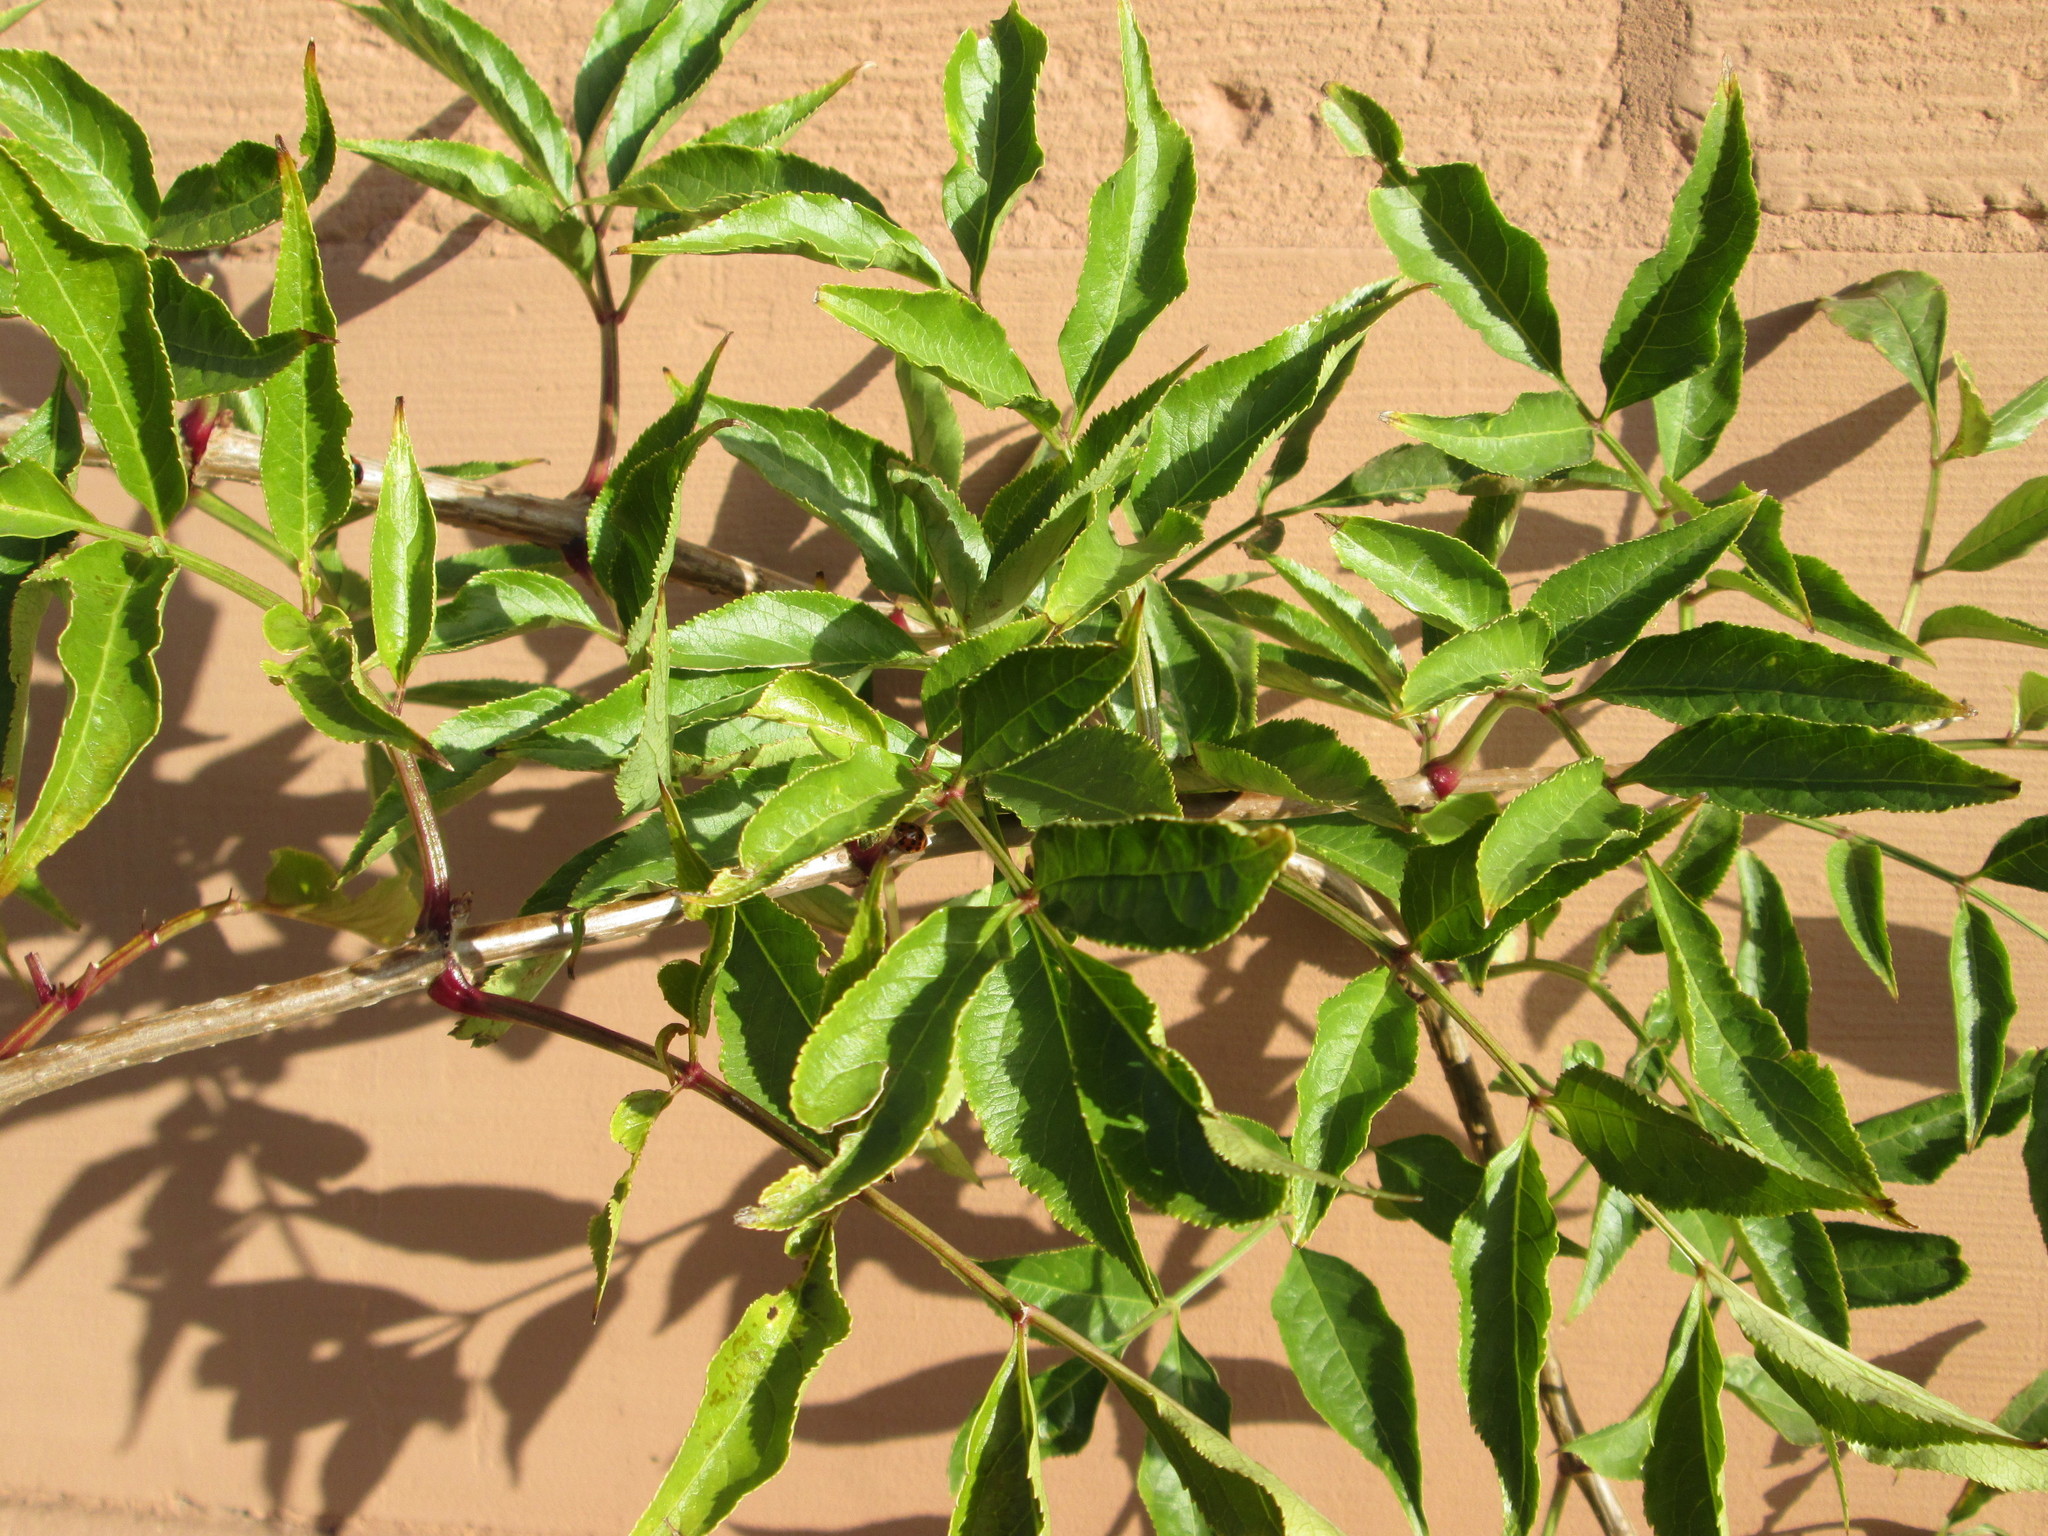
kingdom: Plantae
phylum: Tracheophyta
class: Magnoliopsida
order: Dipsacales
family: Viburnaceae
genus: Sambucus
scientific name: Sambucus nigra
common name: Elder
